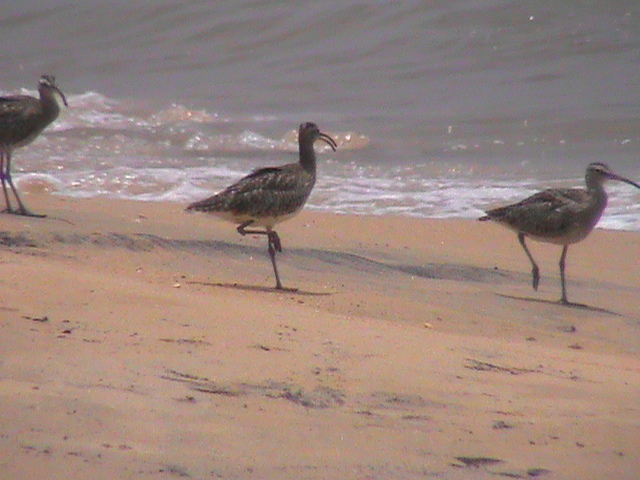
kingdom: Animalia
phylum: Chordata
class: Aves
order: Charadriiformes
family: Scolopacidae
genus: Numenius
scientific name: Numenius phaeopus
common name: Whimbrel
